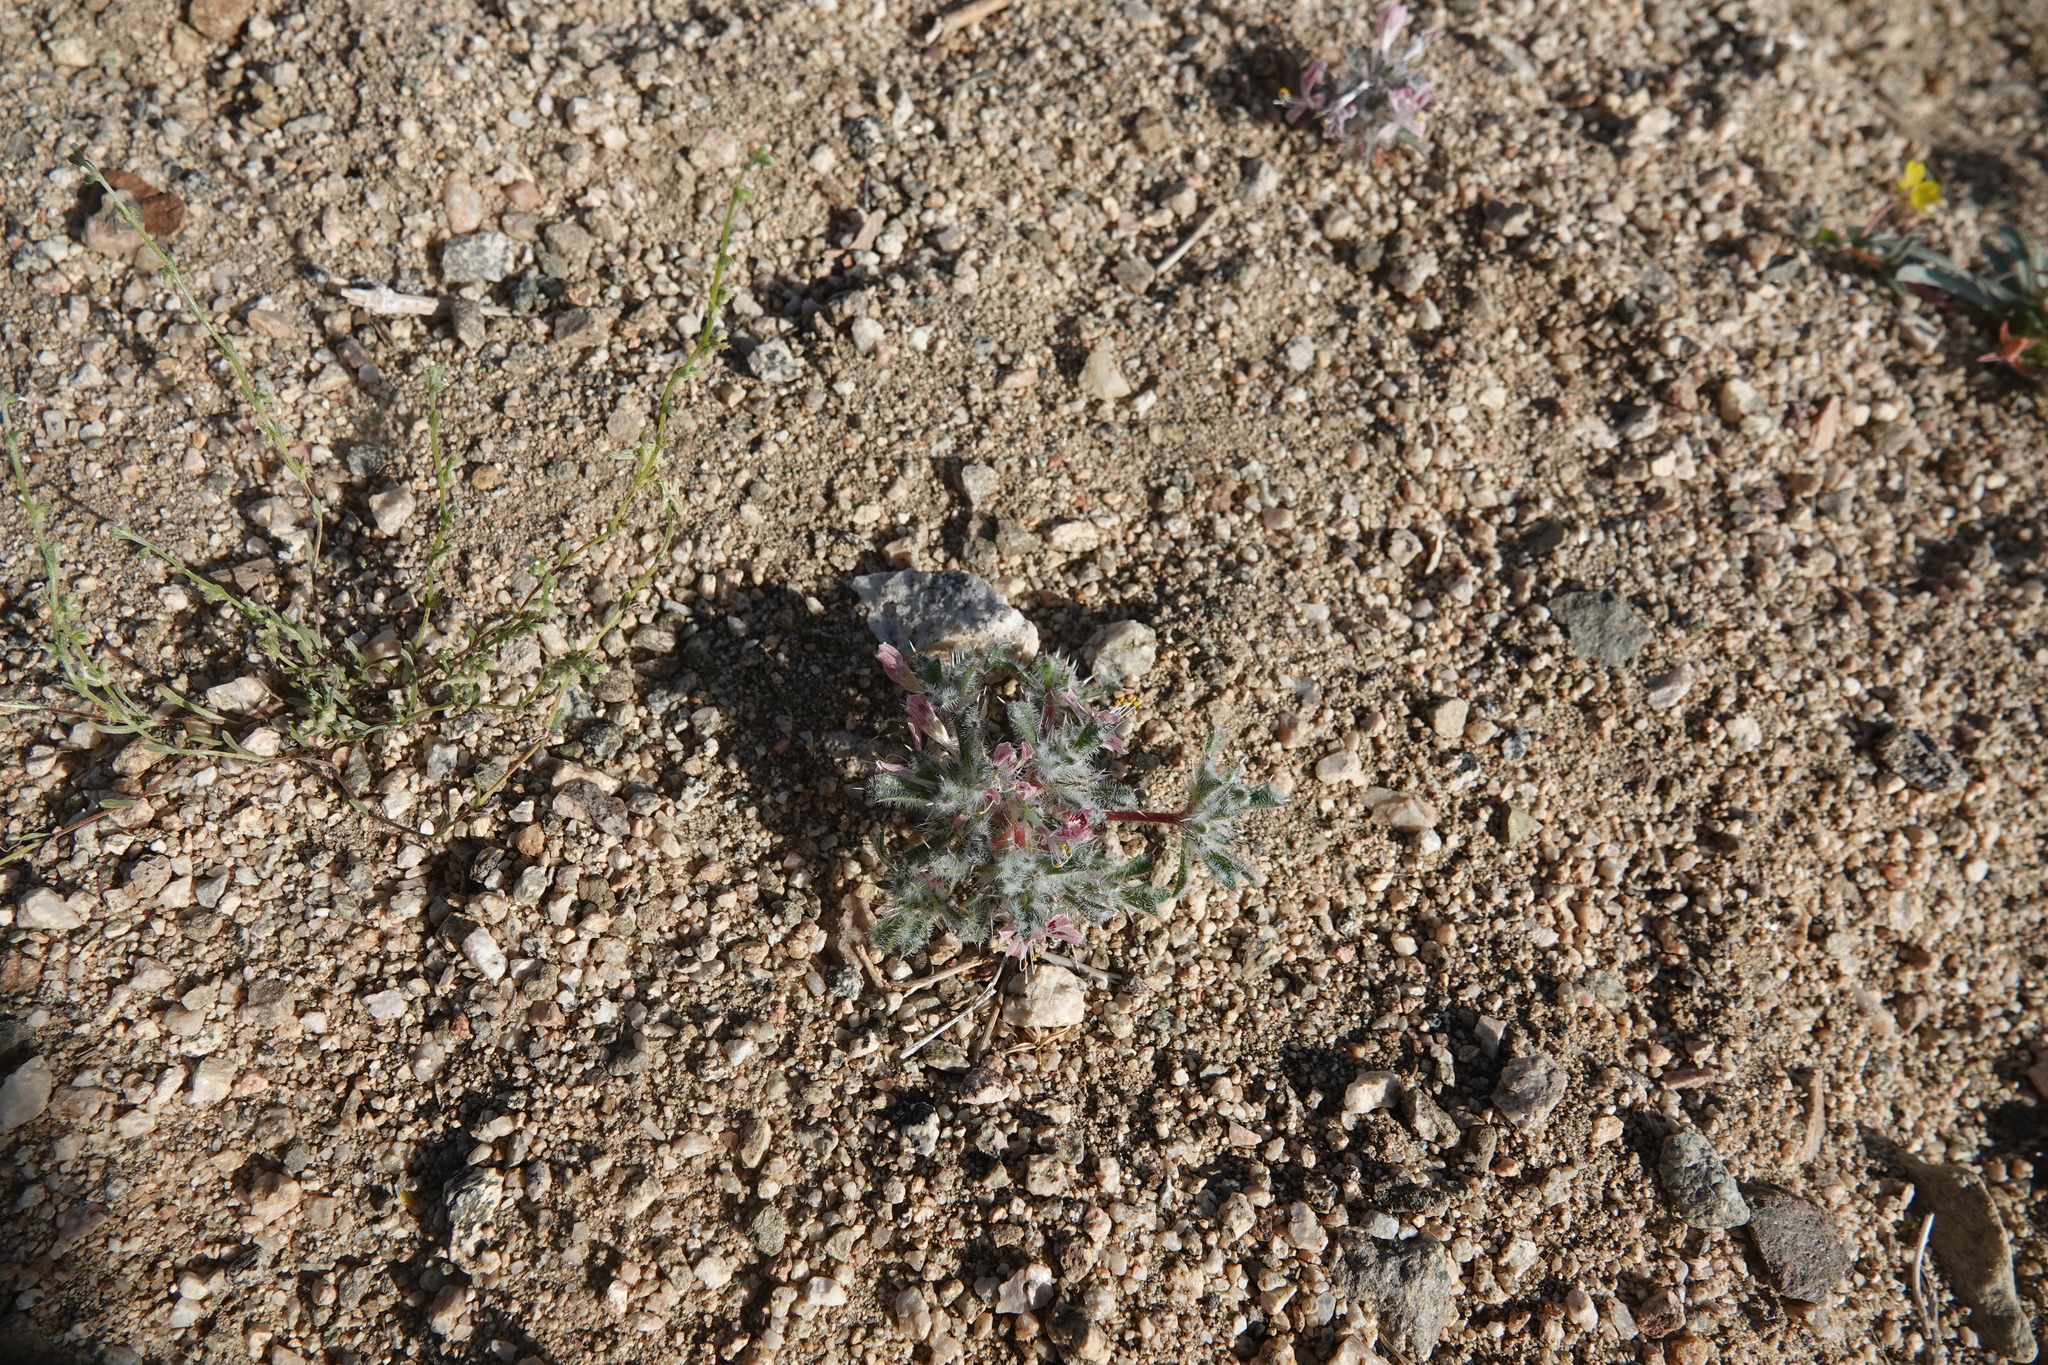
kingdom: Plantae
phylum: Tracheophyta
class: Magnoliopsida
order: Ericales
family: Polemoniaceae
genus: Loeseliastrum
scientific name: Loeseliastrum matthewsii
